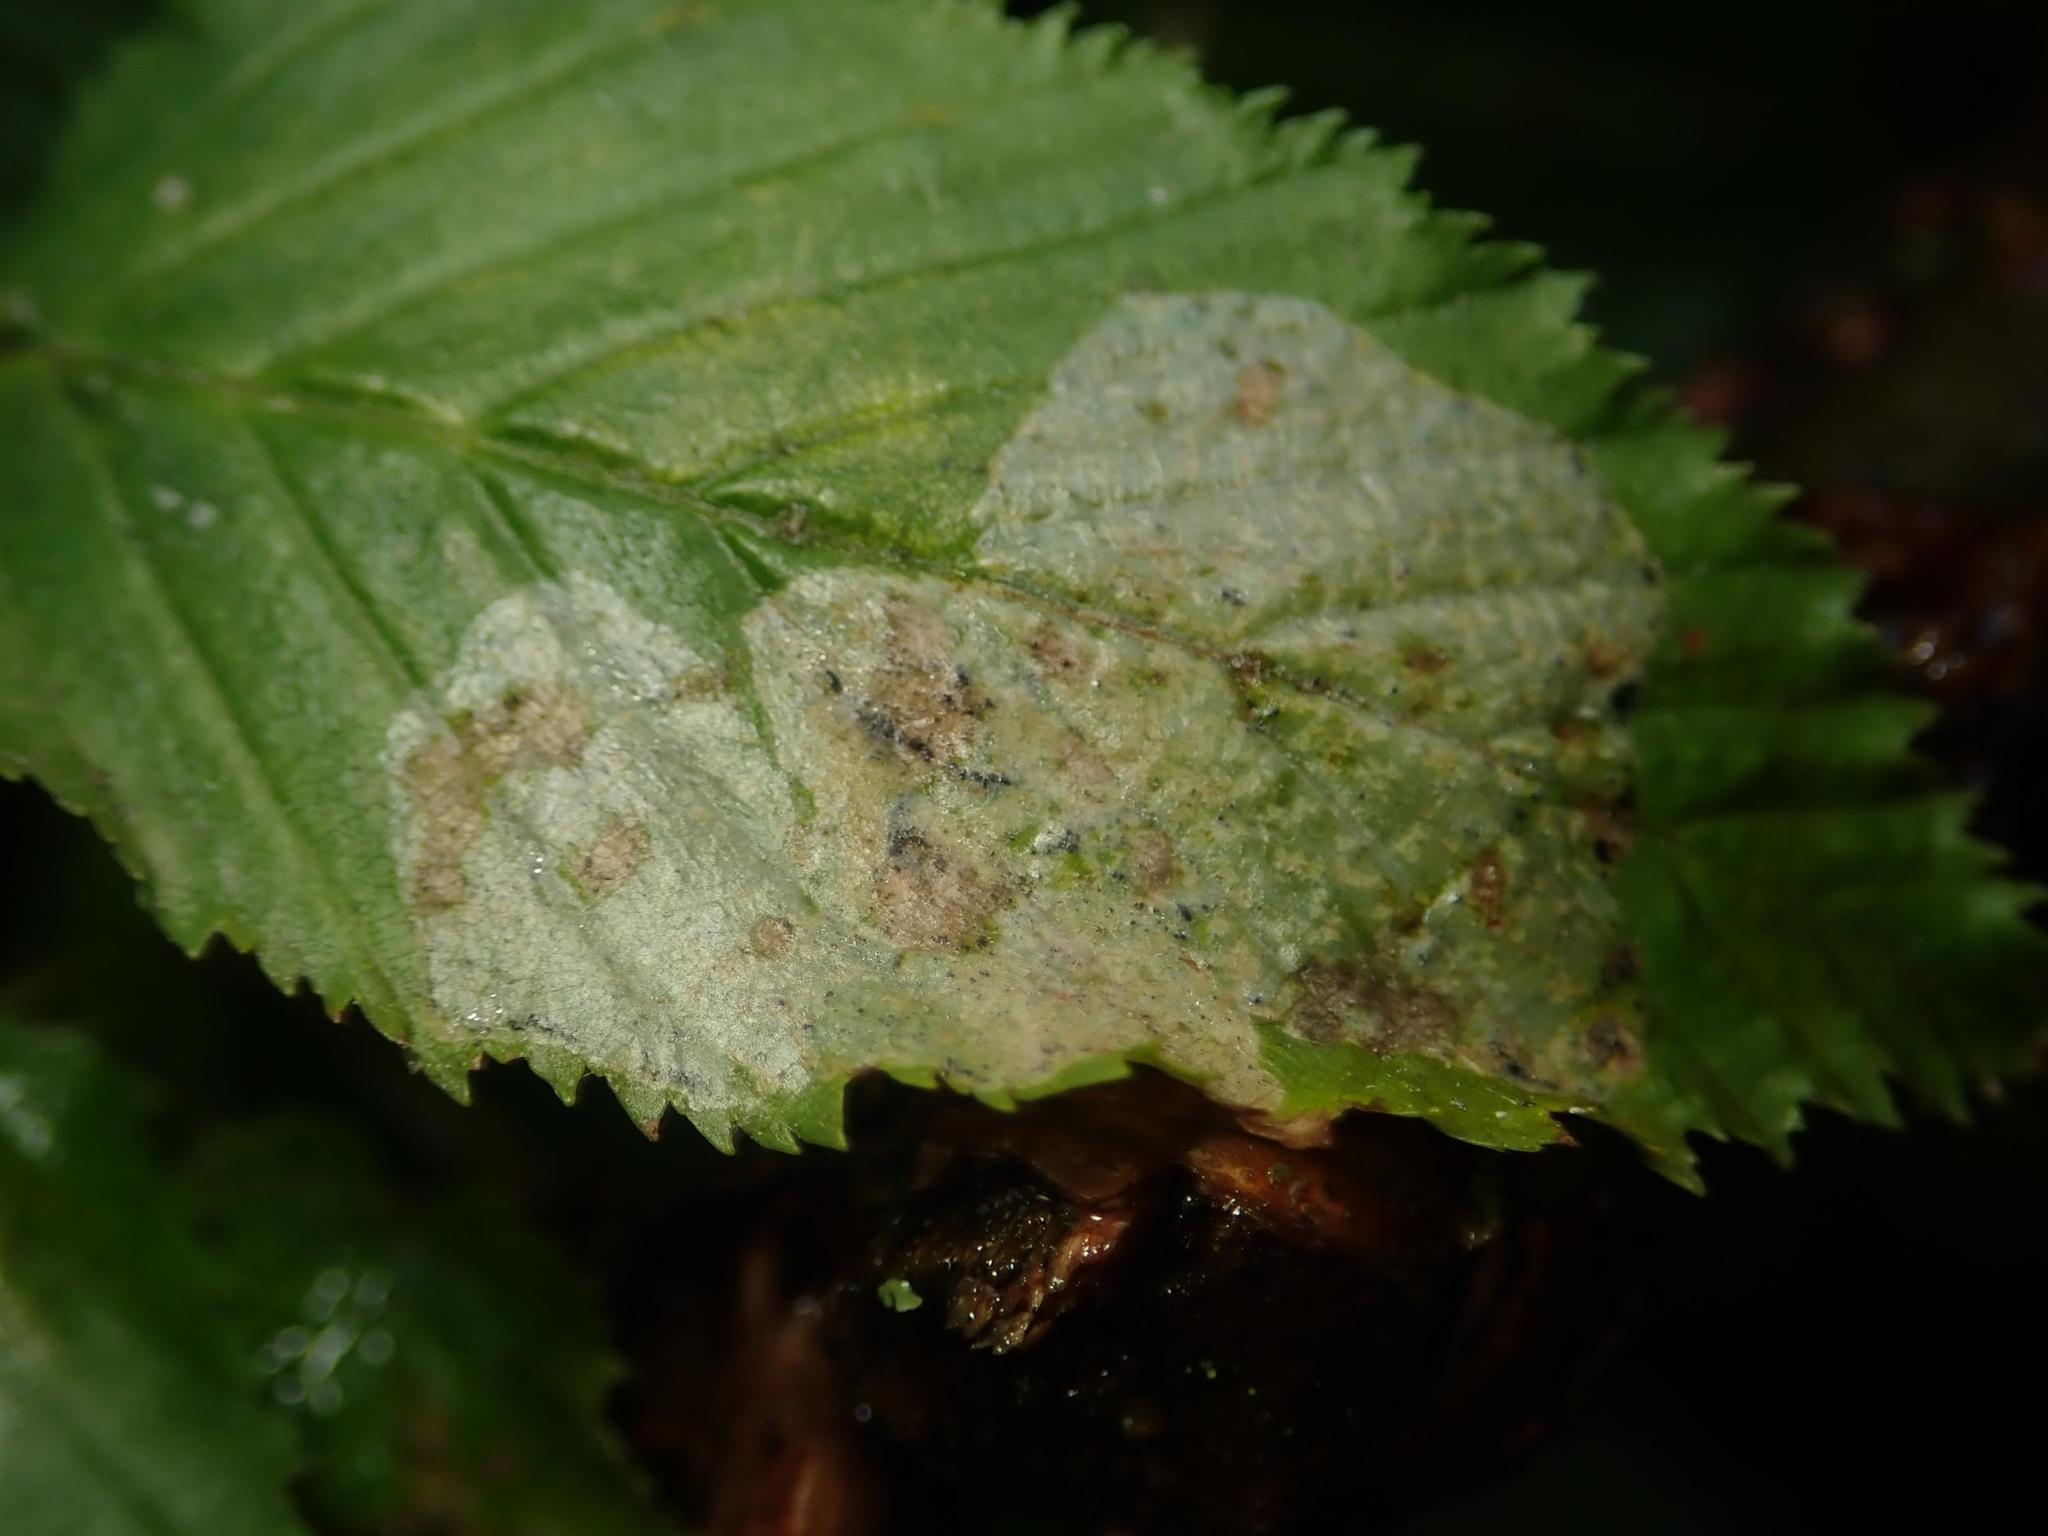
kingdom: Animalia
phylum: Arthropoda
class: Insecta
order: Lepidoptera
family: Gracillariidae
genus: Phyllonorycter
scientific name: Phyllonorycter esperella
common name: Dark hornbeam midget
